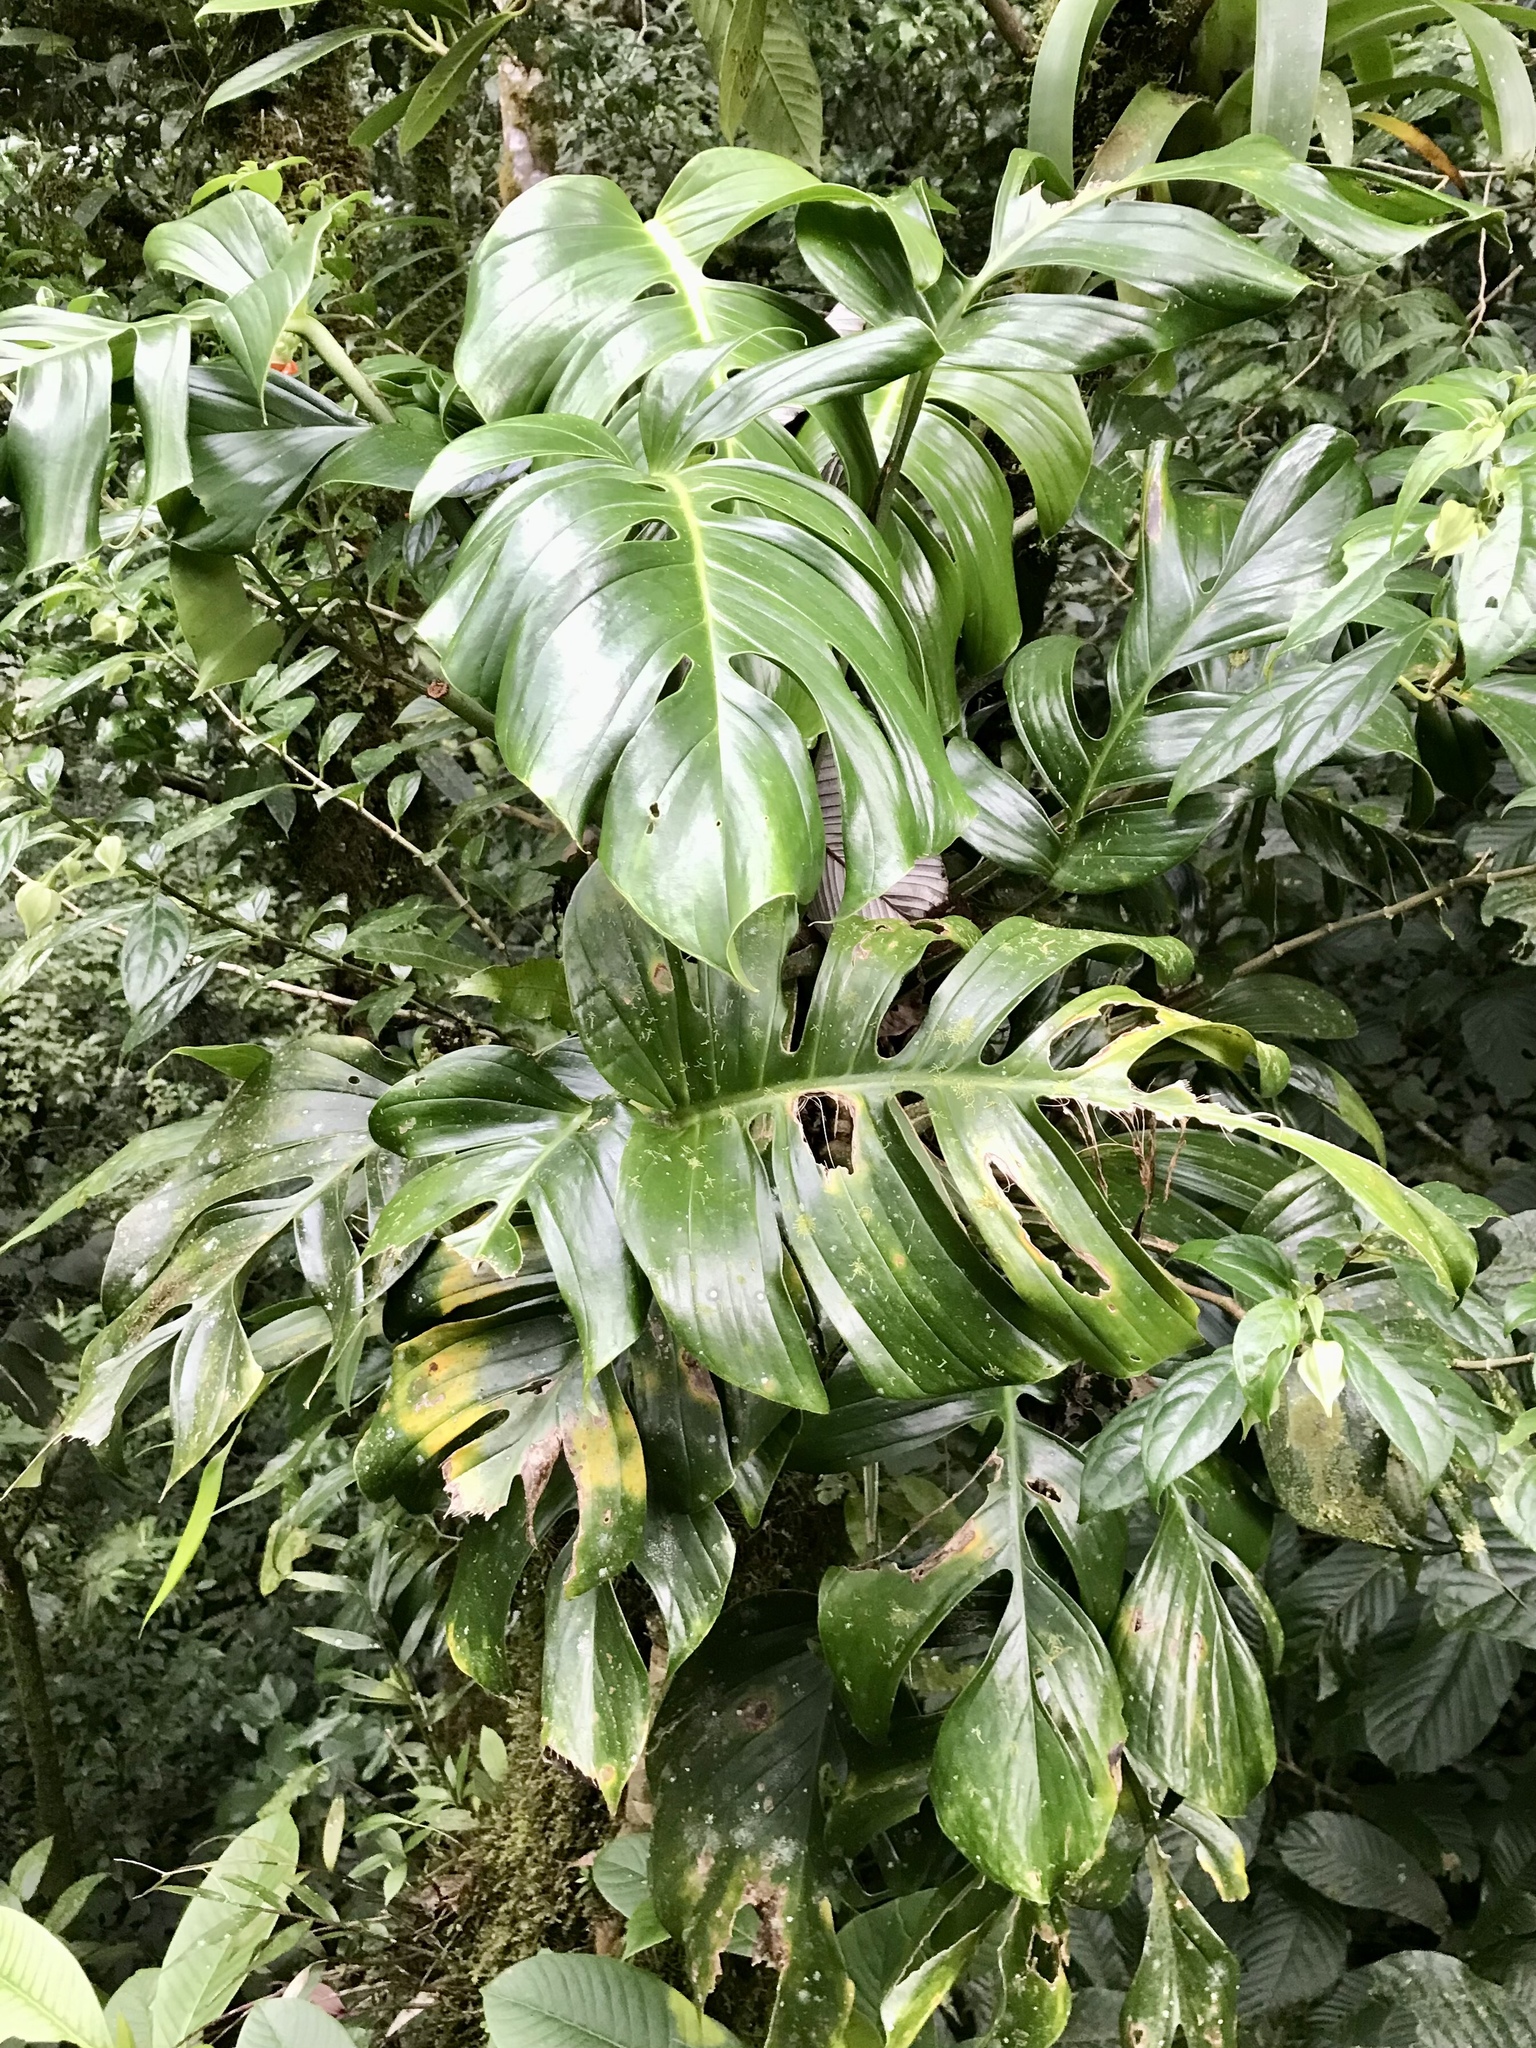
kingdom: Plantae
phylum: Tracheophyta
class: Liliopsida
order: Alismatales
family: Araceae
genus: Monstera
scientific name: Monstera monteverdensis
